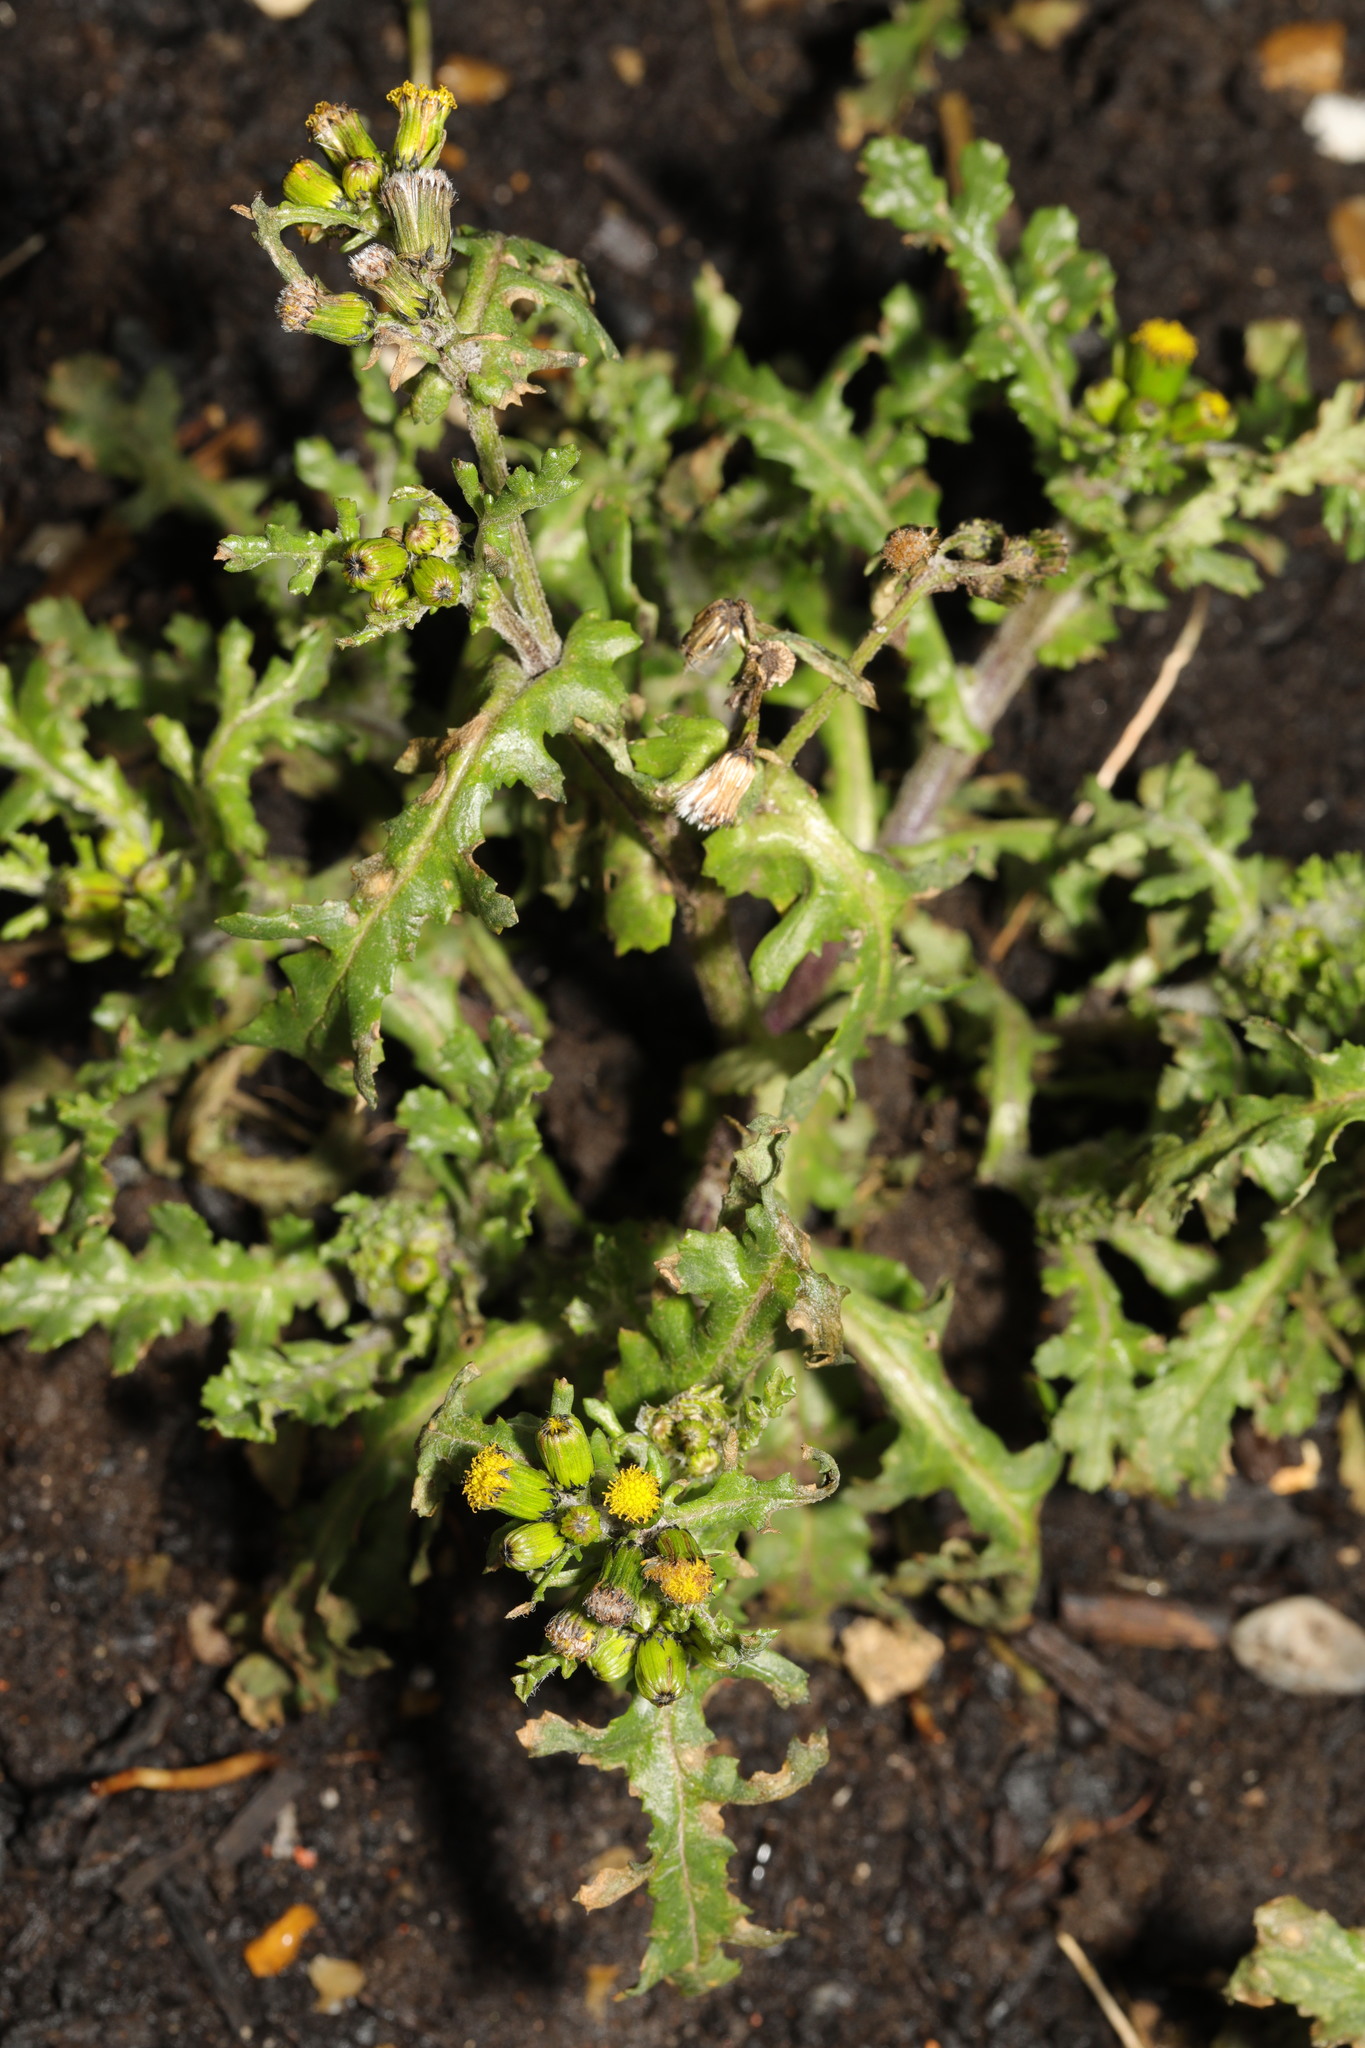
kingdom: Plantae
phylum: Tracheophyta
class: Magnoliopsida
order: Asterales
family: Asteraceae
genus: Senecio
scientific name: Senecio vulgaris
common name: Old-man-in-the-spring
